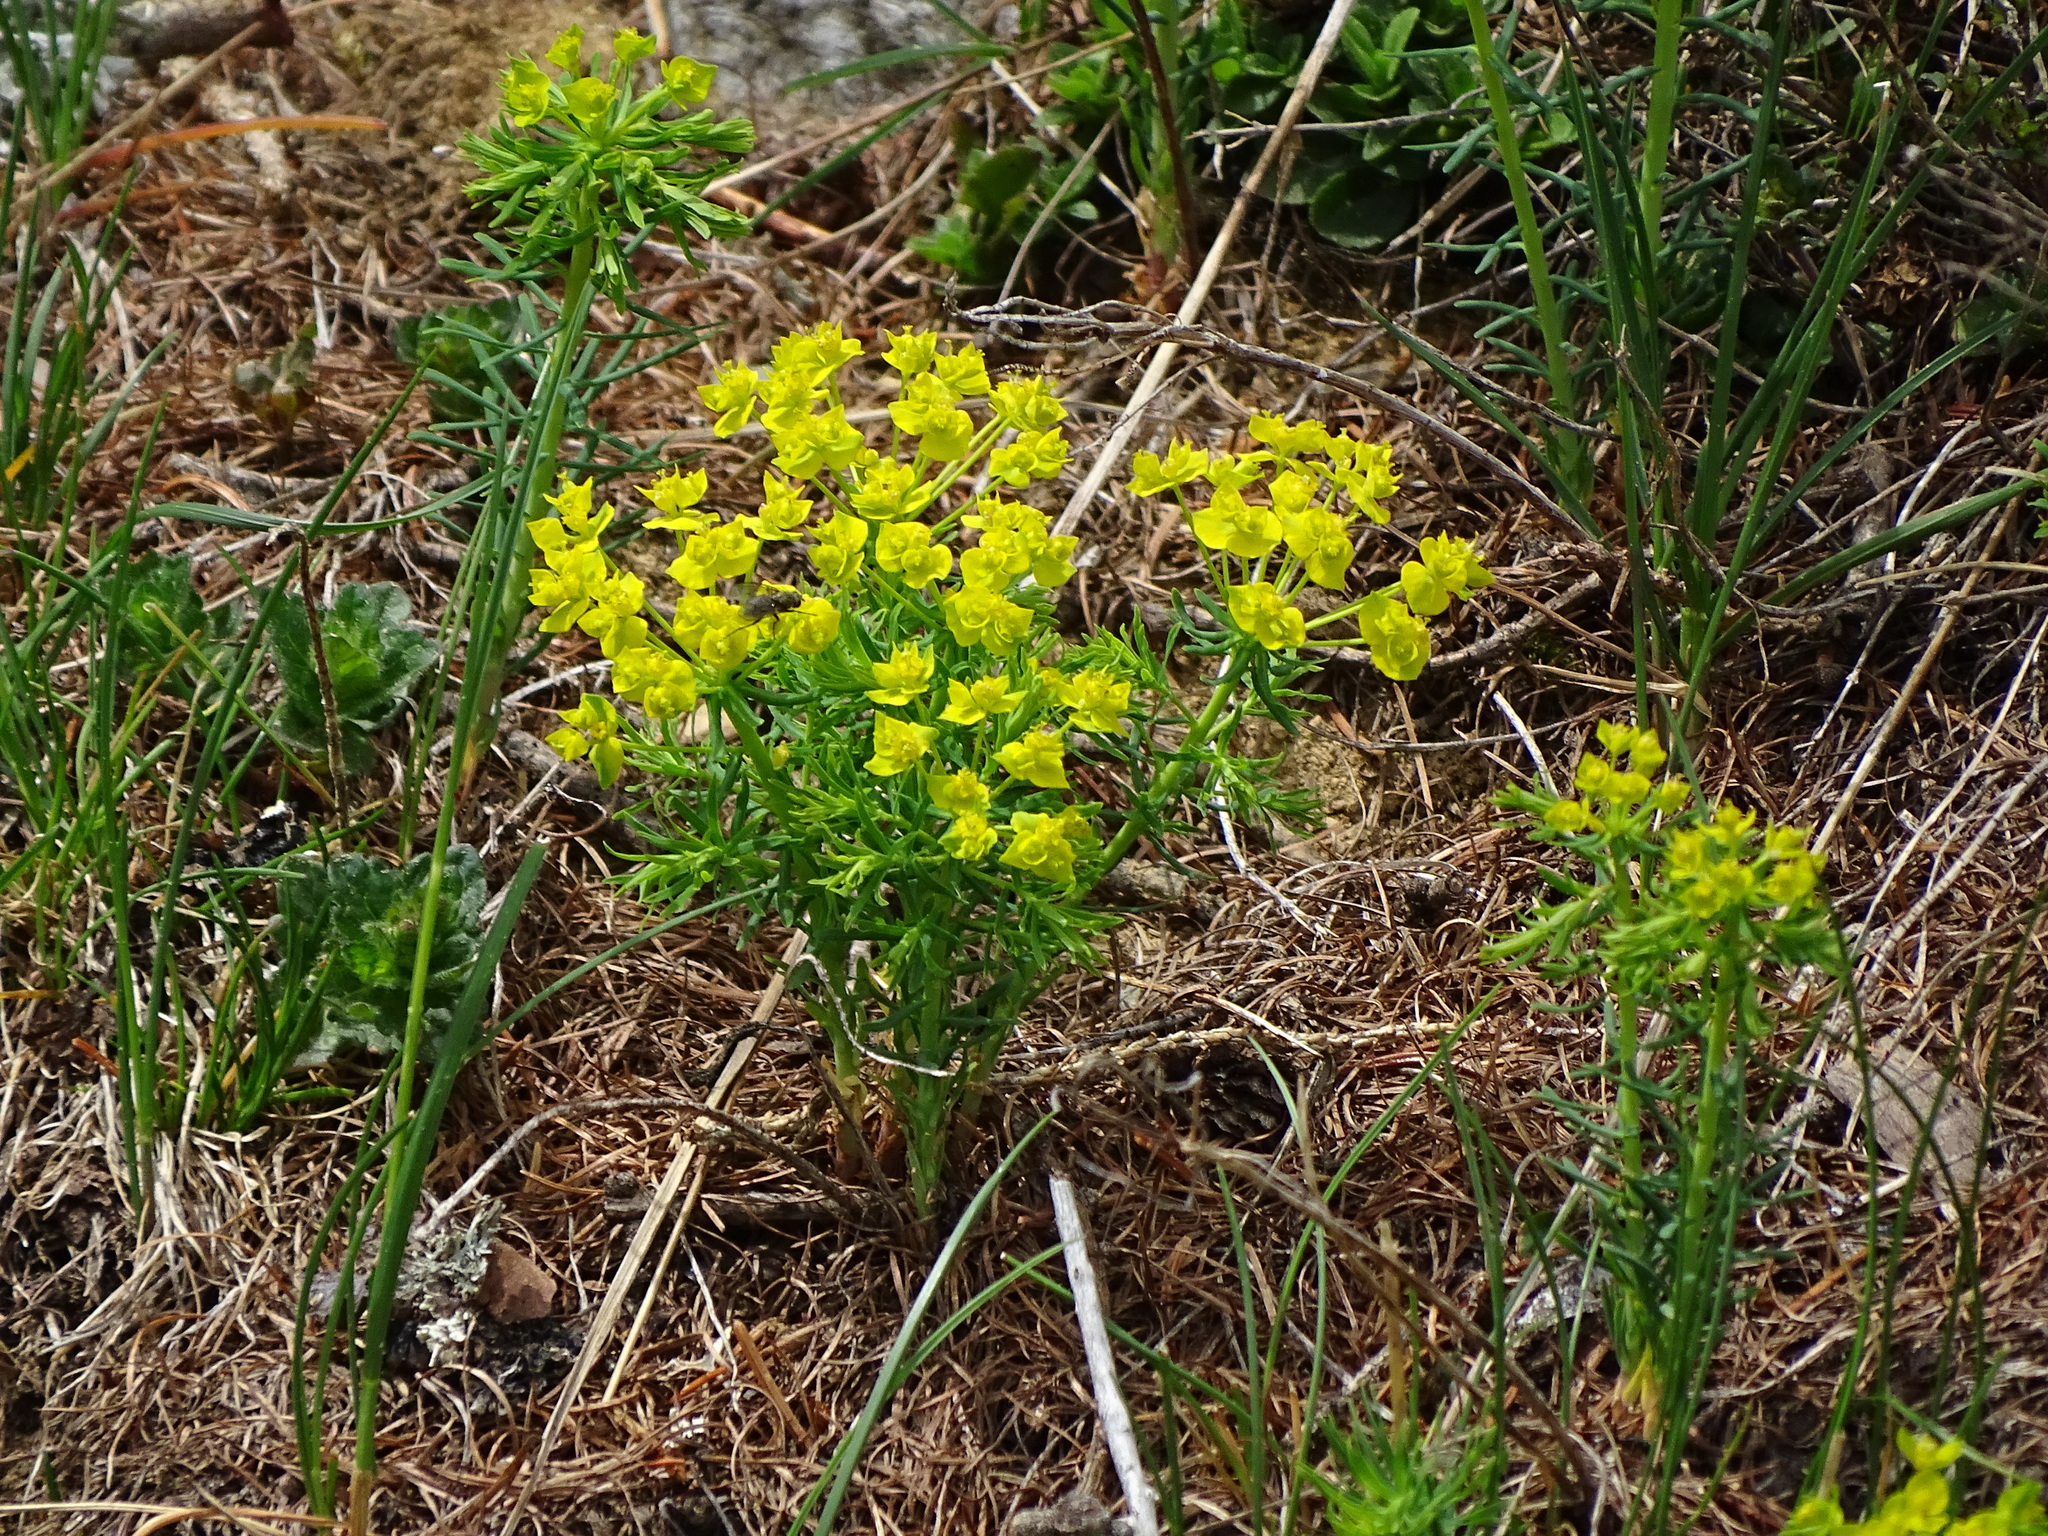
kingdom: Plantae
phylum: Tracheophyta
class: Magnoliopsida
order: Malpighiales
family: Euphorbiaceae
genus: Euphorbia
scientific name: Euphorbia cyparissias
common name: Cypress spurge
